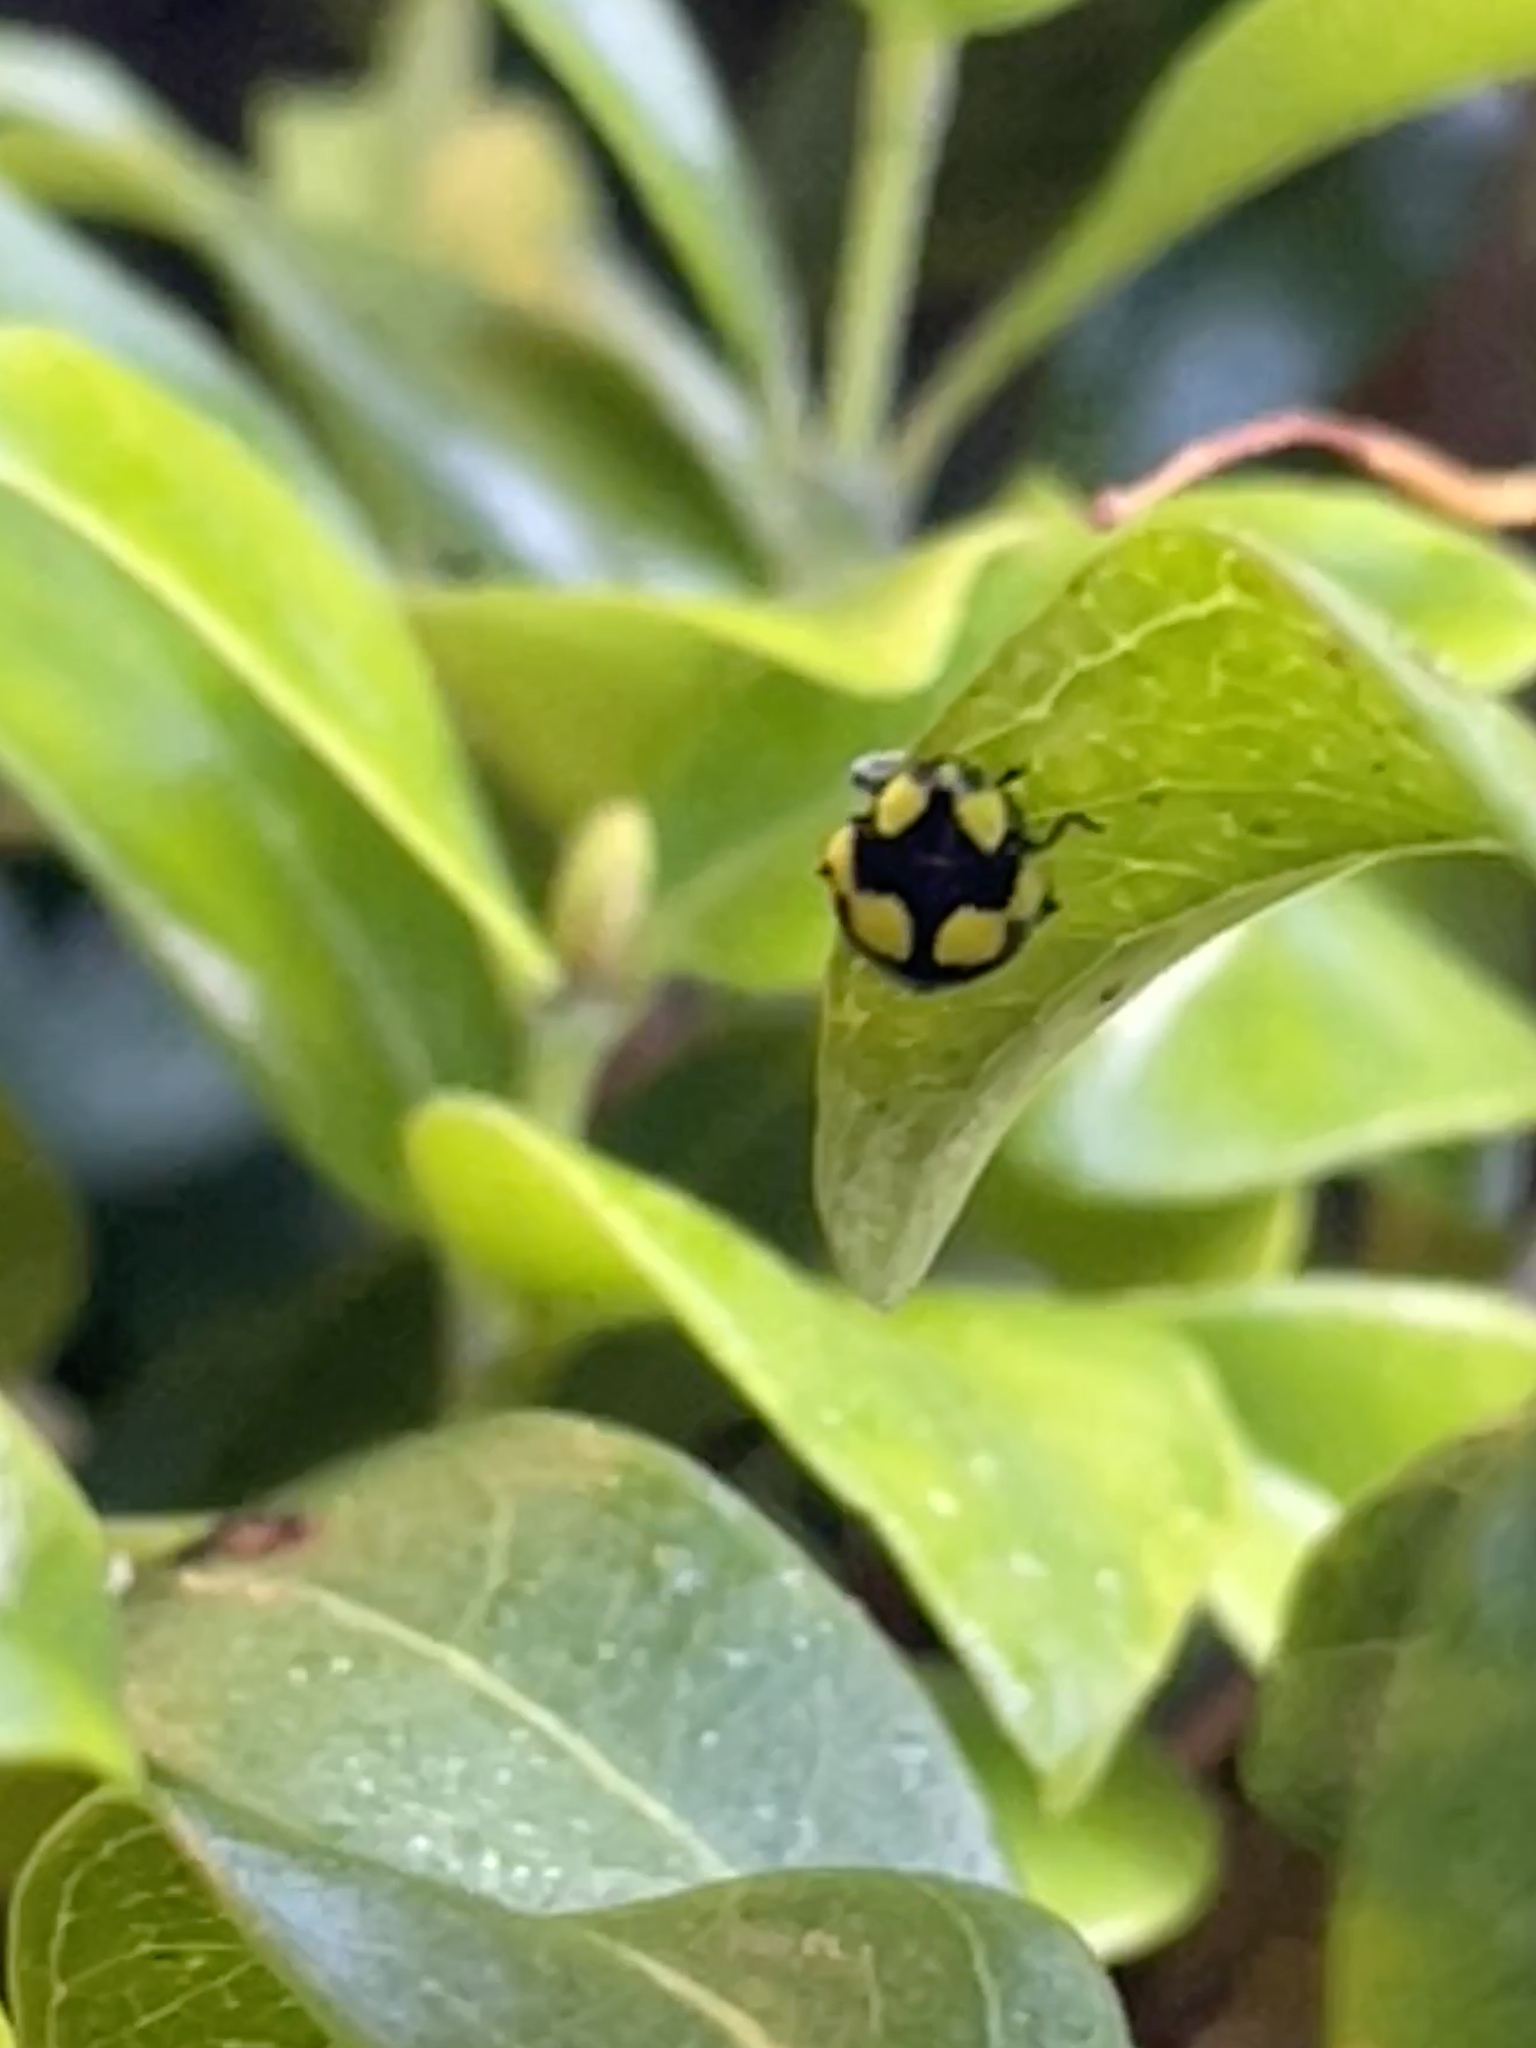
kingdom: Animalia
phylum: Arthropoda
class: Insecta
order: Coleoptera
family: Coccinellidae
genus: Illeis
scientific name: Illeis galbula
